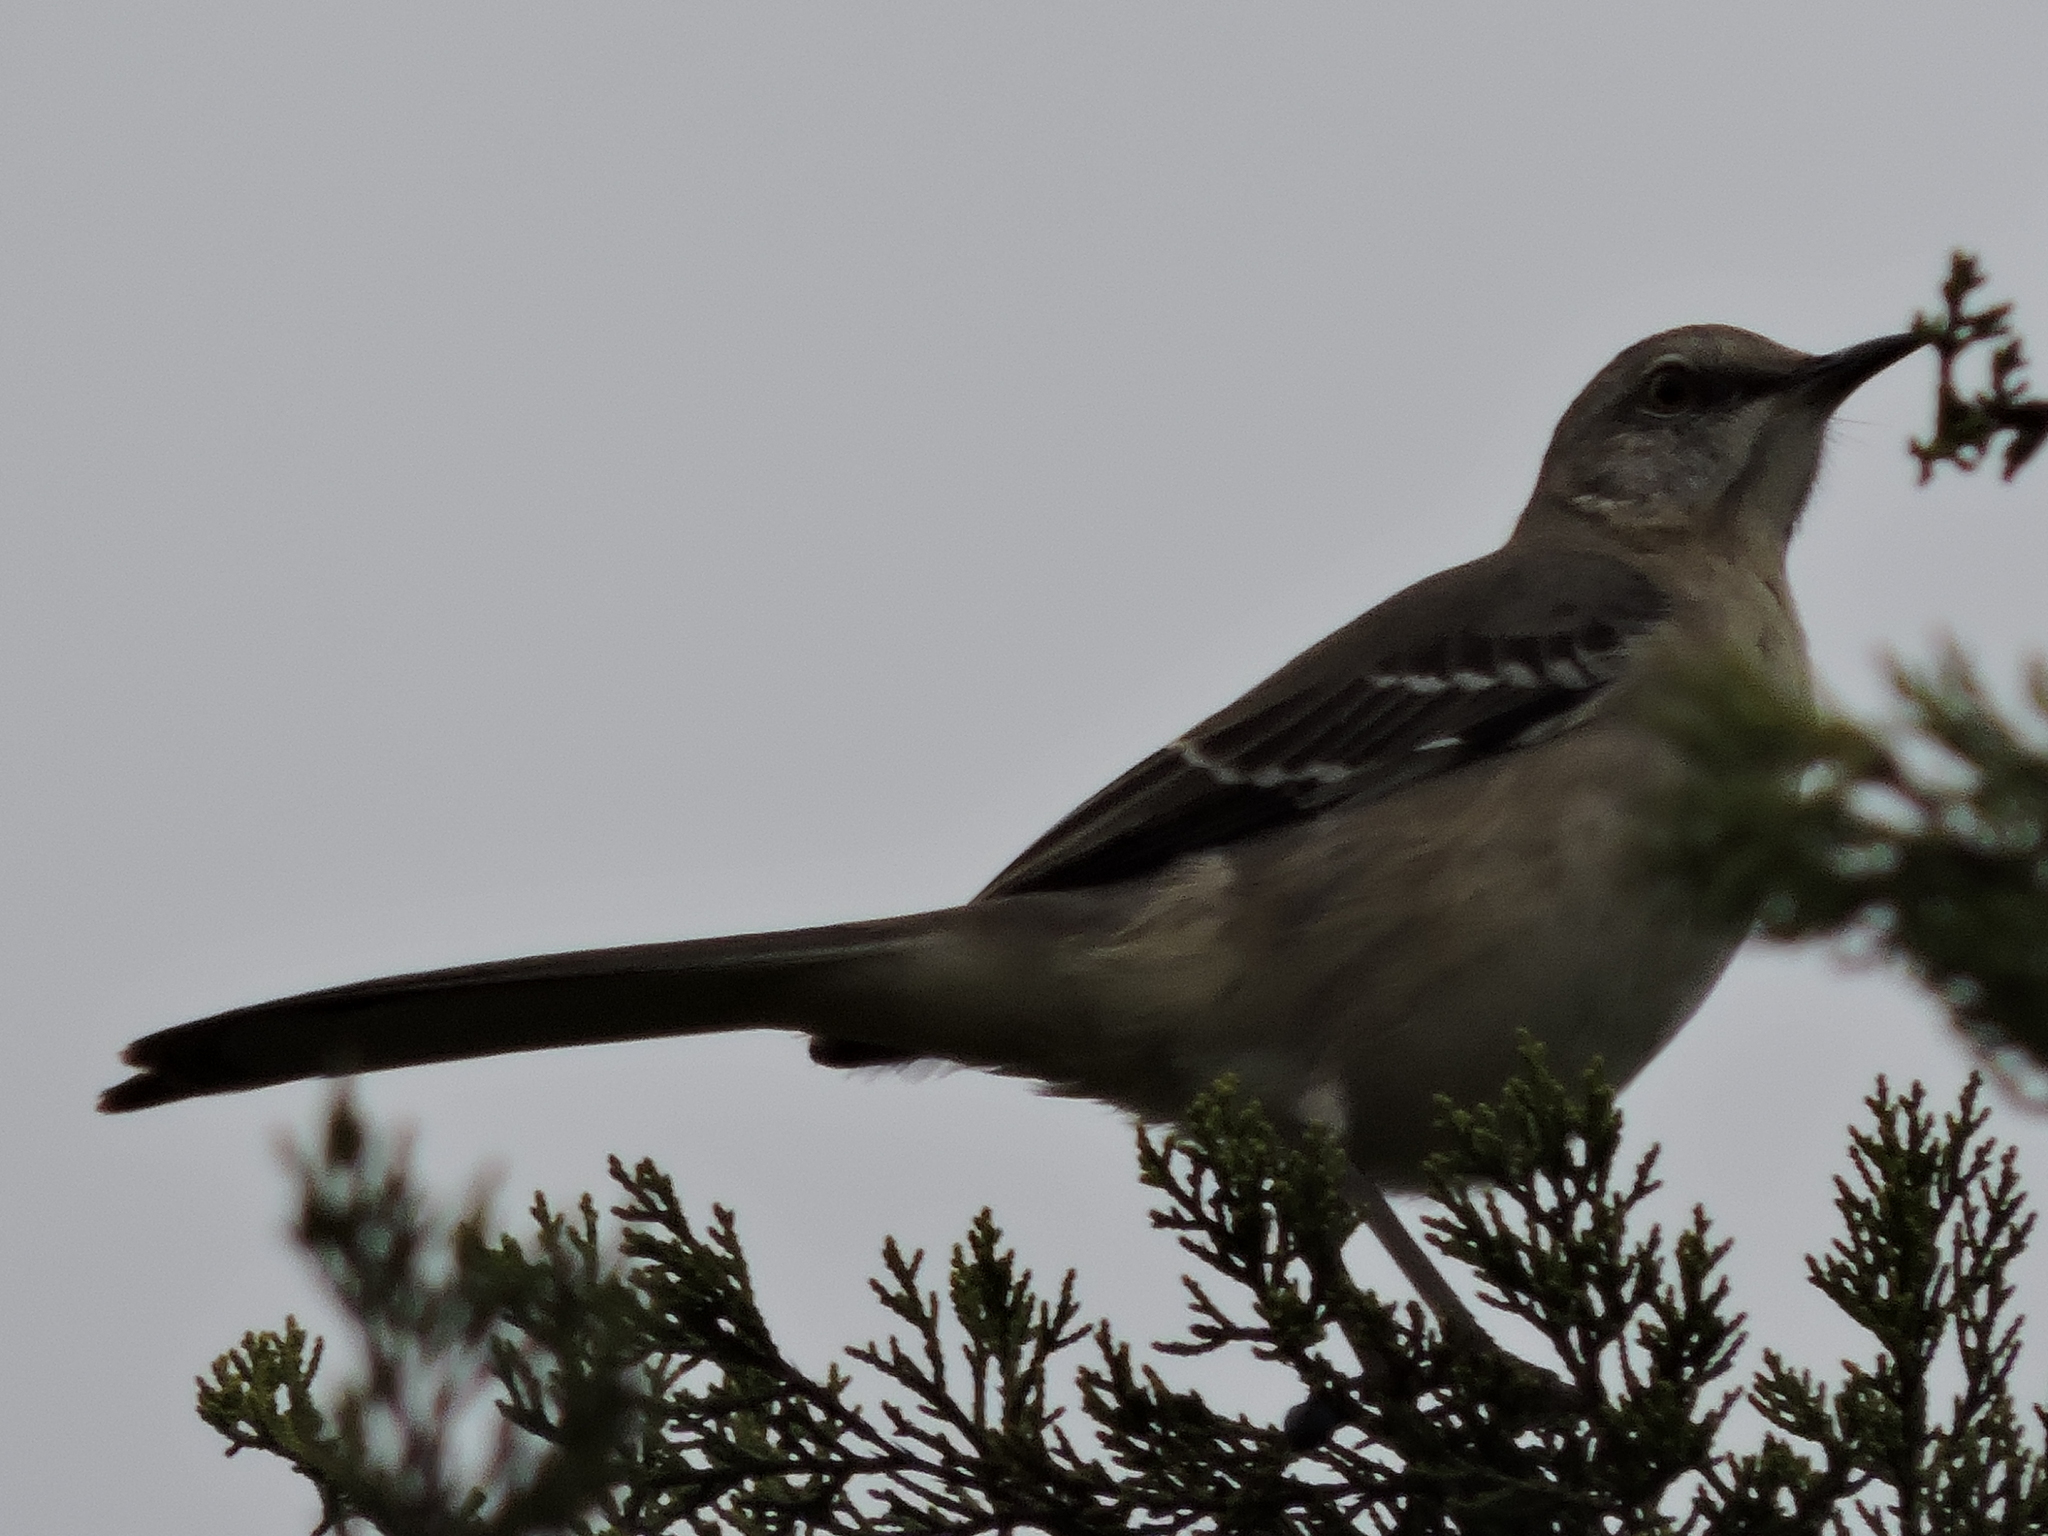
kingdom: Animalia
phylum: Chordata
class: Aves
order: Passeriformes
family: Mimidae
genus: Mimus
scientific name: Mimus polyglottos
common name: Northern mockingbird
